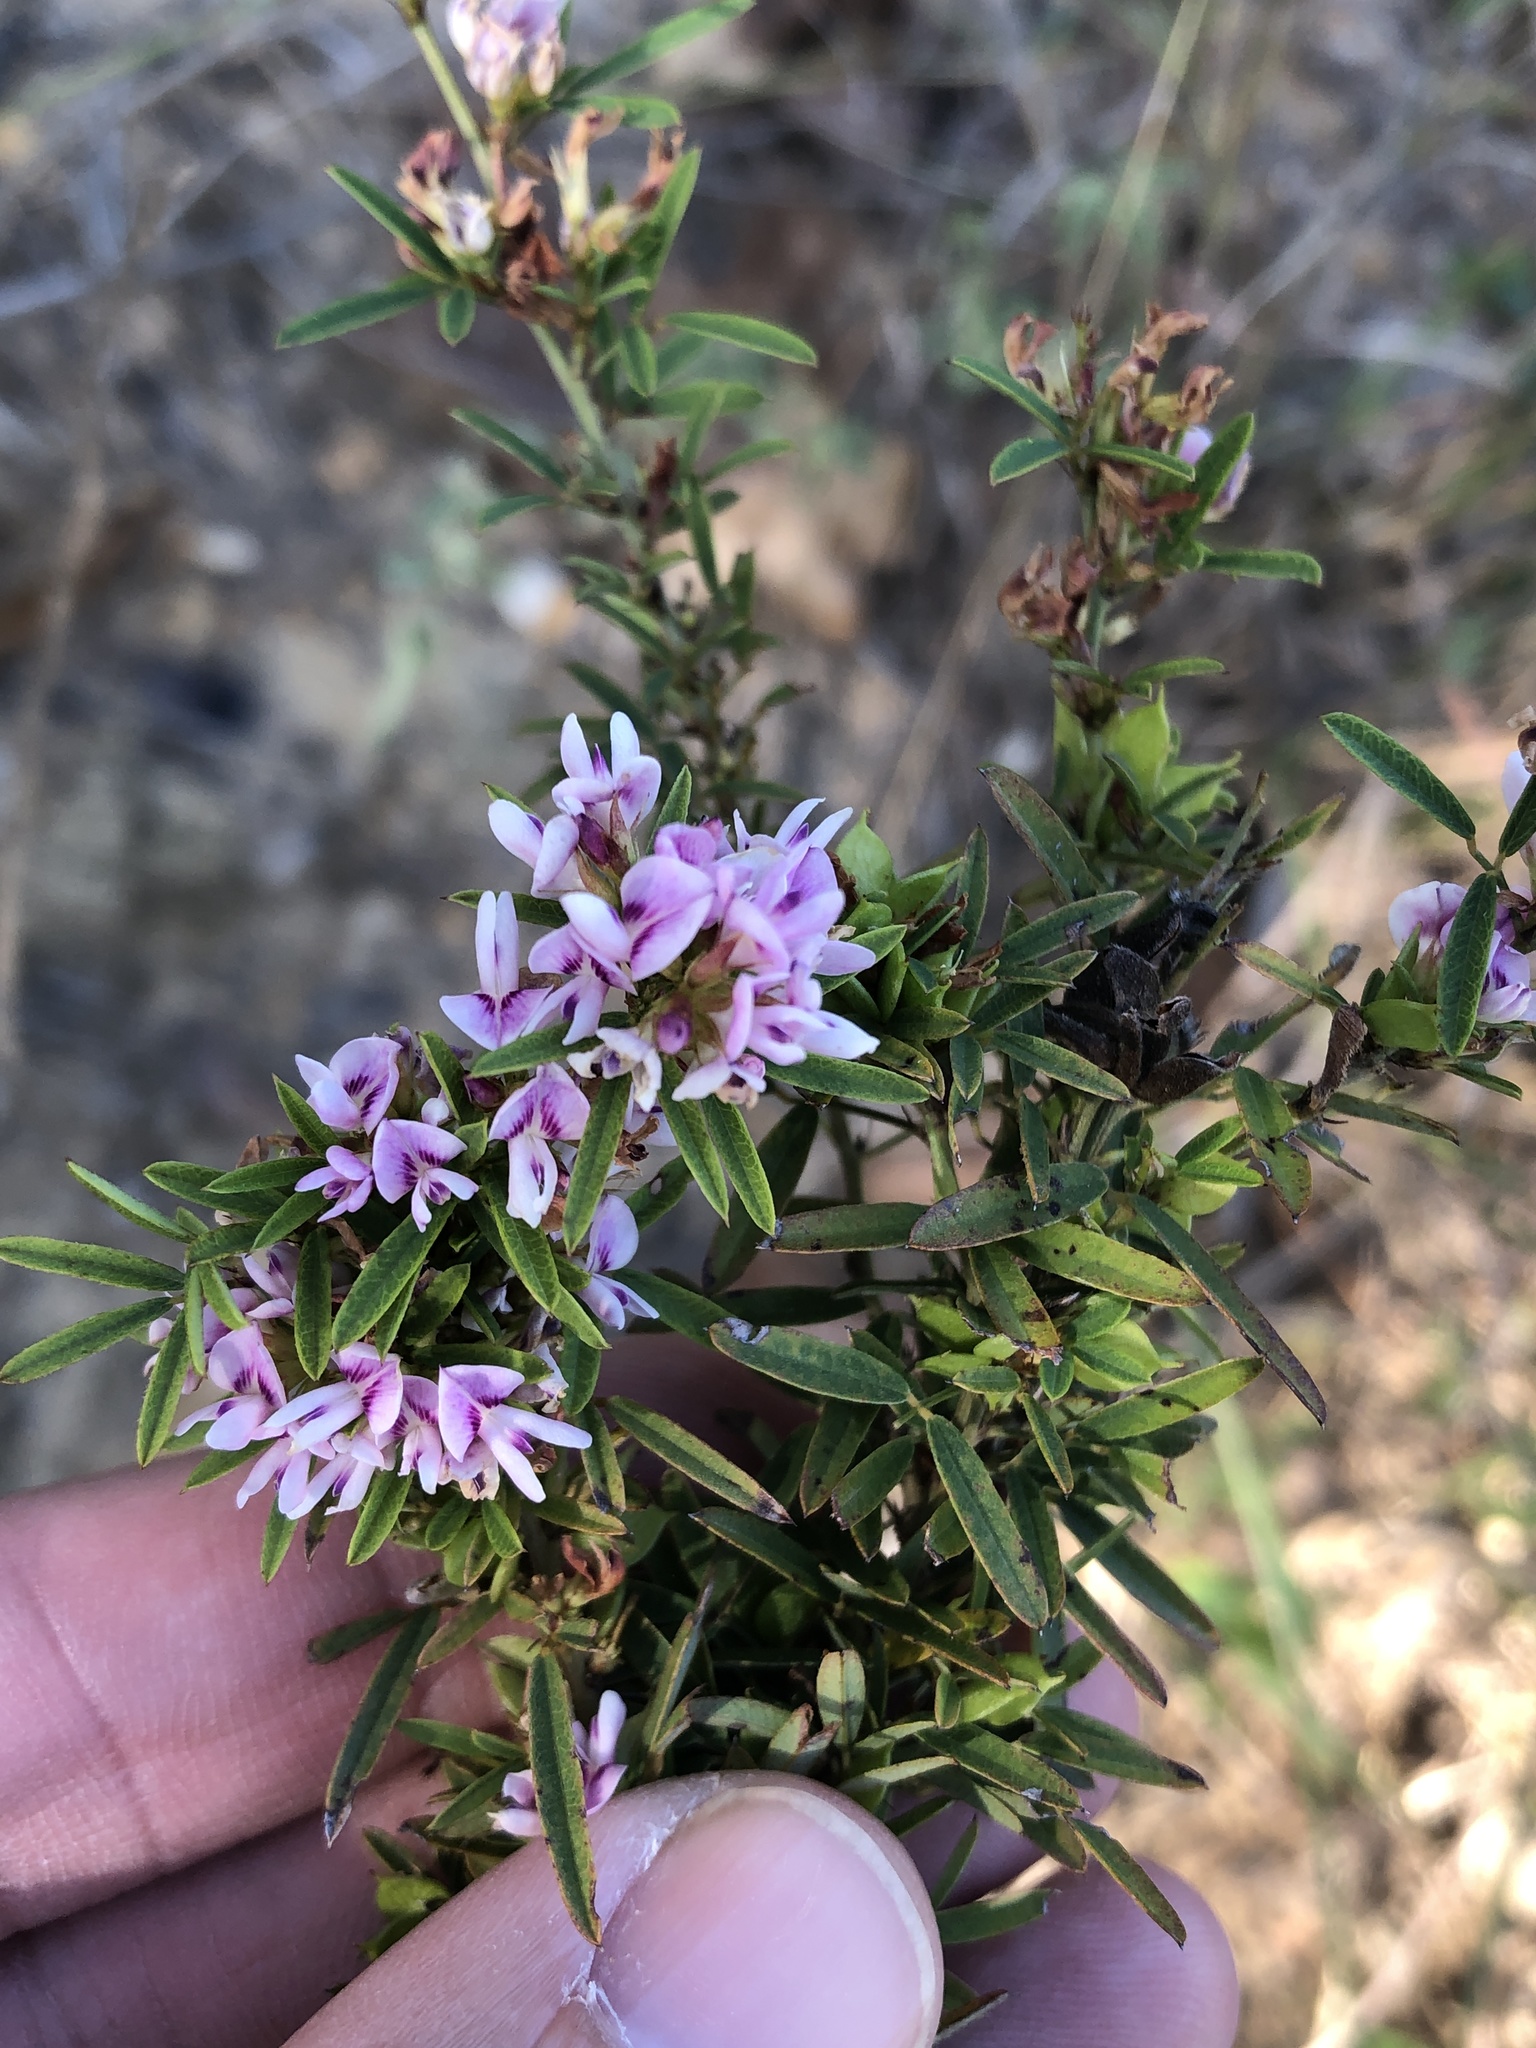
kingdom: Plantae
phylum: Tracheophyta
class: Magnoliopsida
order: Fabales
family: Fabaceae
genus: Lespedeza
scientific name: Lespedeza virginica
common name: Slender bush-clover
